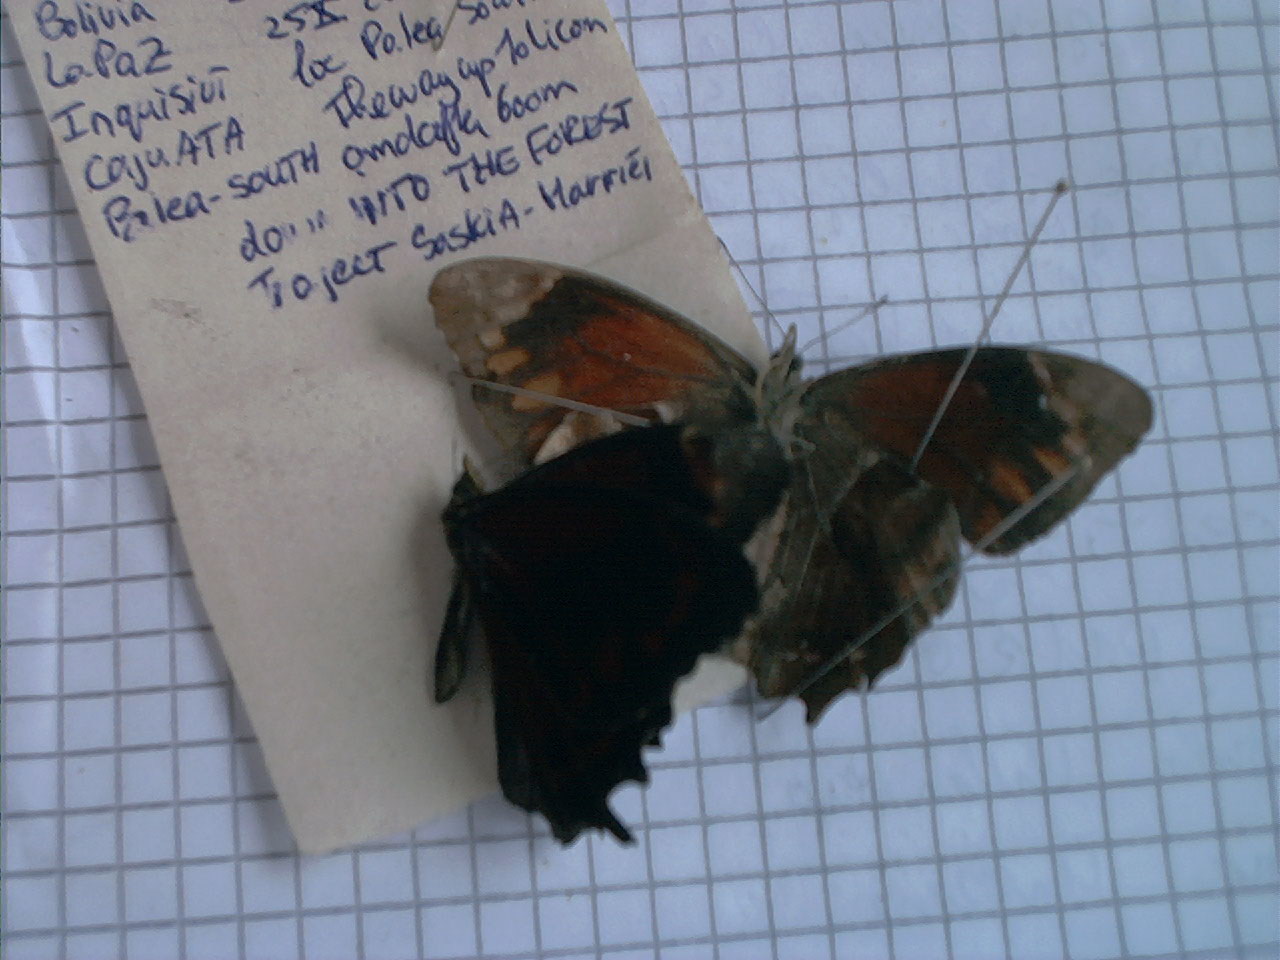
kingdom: Animalia
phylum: Arthropoda
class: Insecta
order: Lepidoptera
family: Nymphalidae
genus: Lasiophila
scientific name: Lasiophila orbifera
